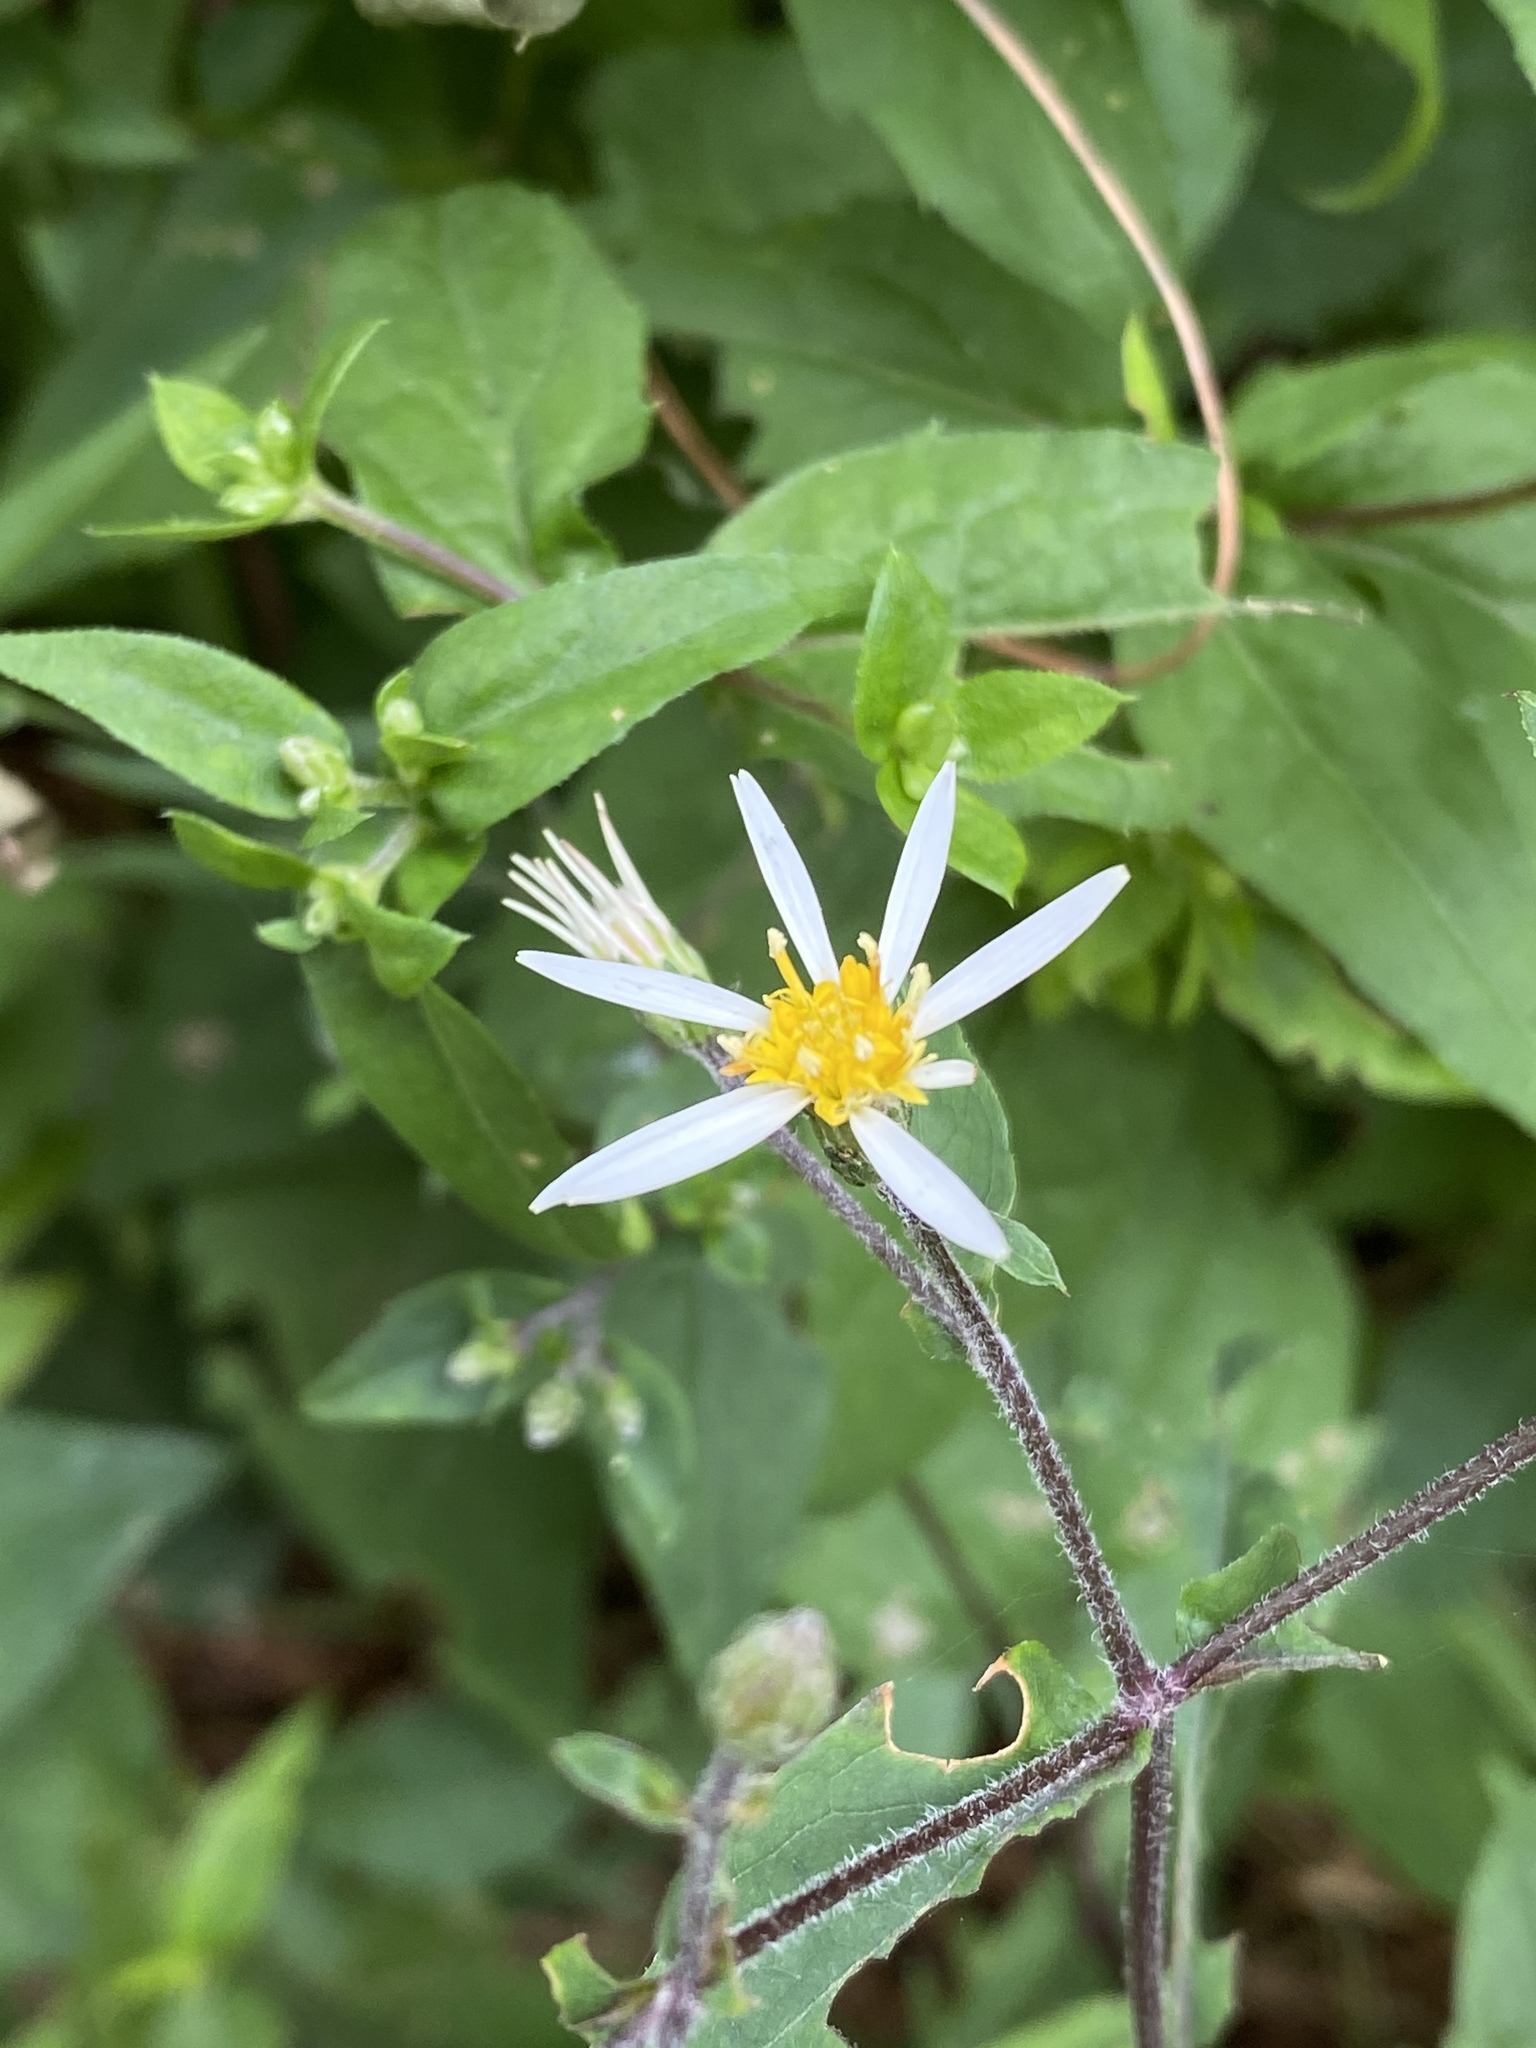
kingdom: Plantae
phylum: Tracheophyta
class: Magnoliopsida
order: Asterales
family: Asteraceae
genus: Eurybia
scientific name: Eurybia divaricata
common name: White wood aster
